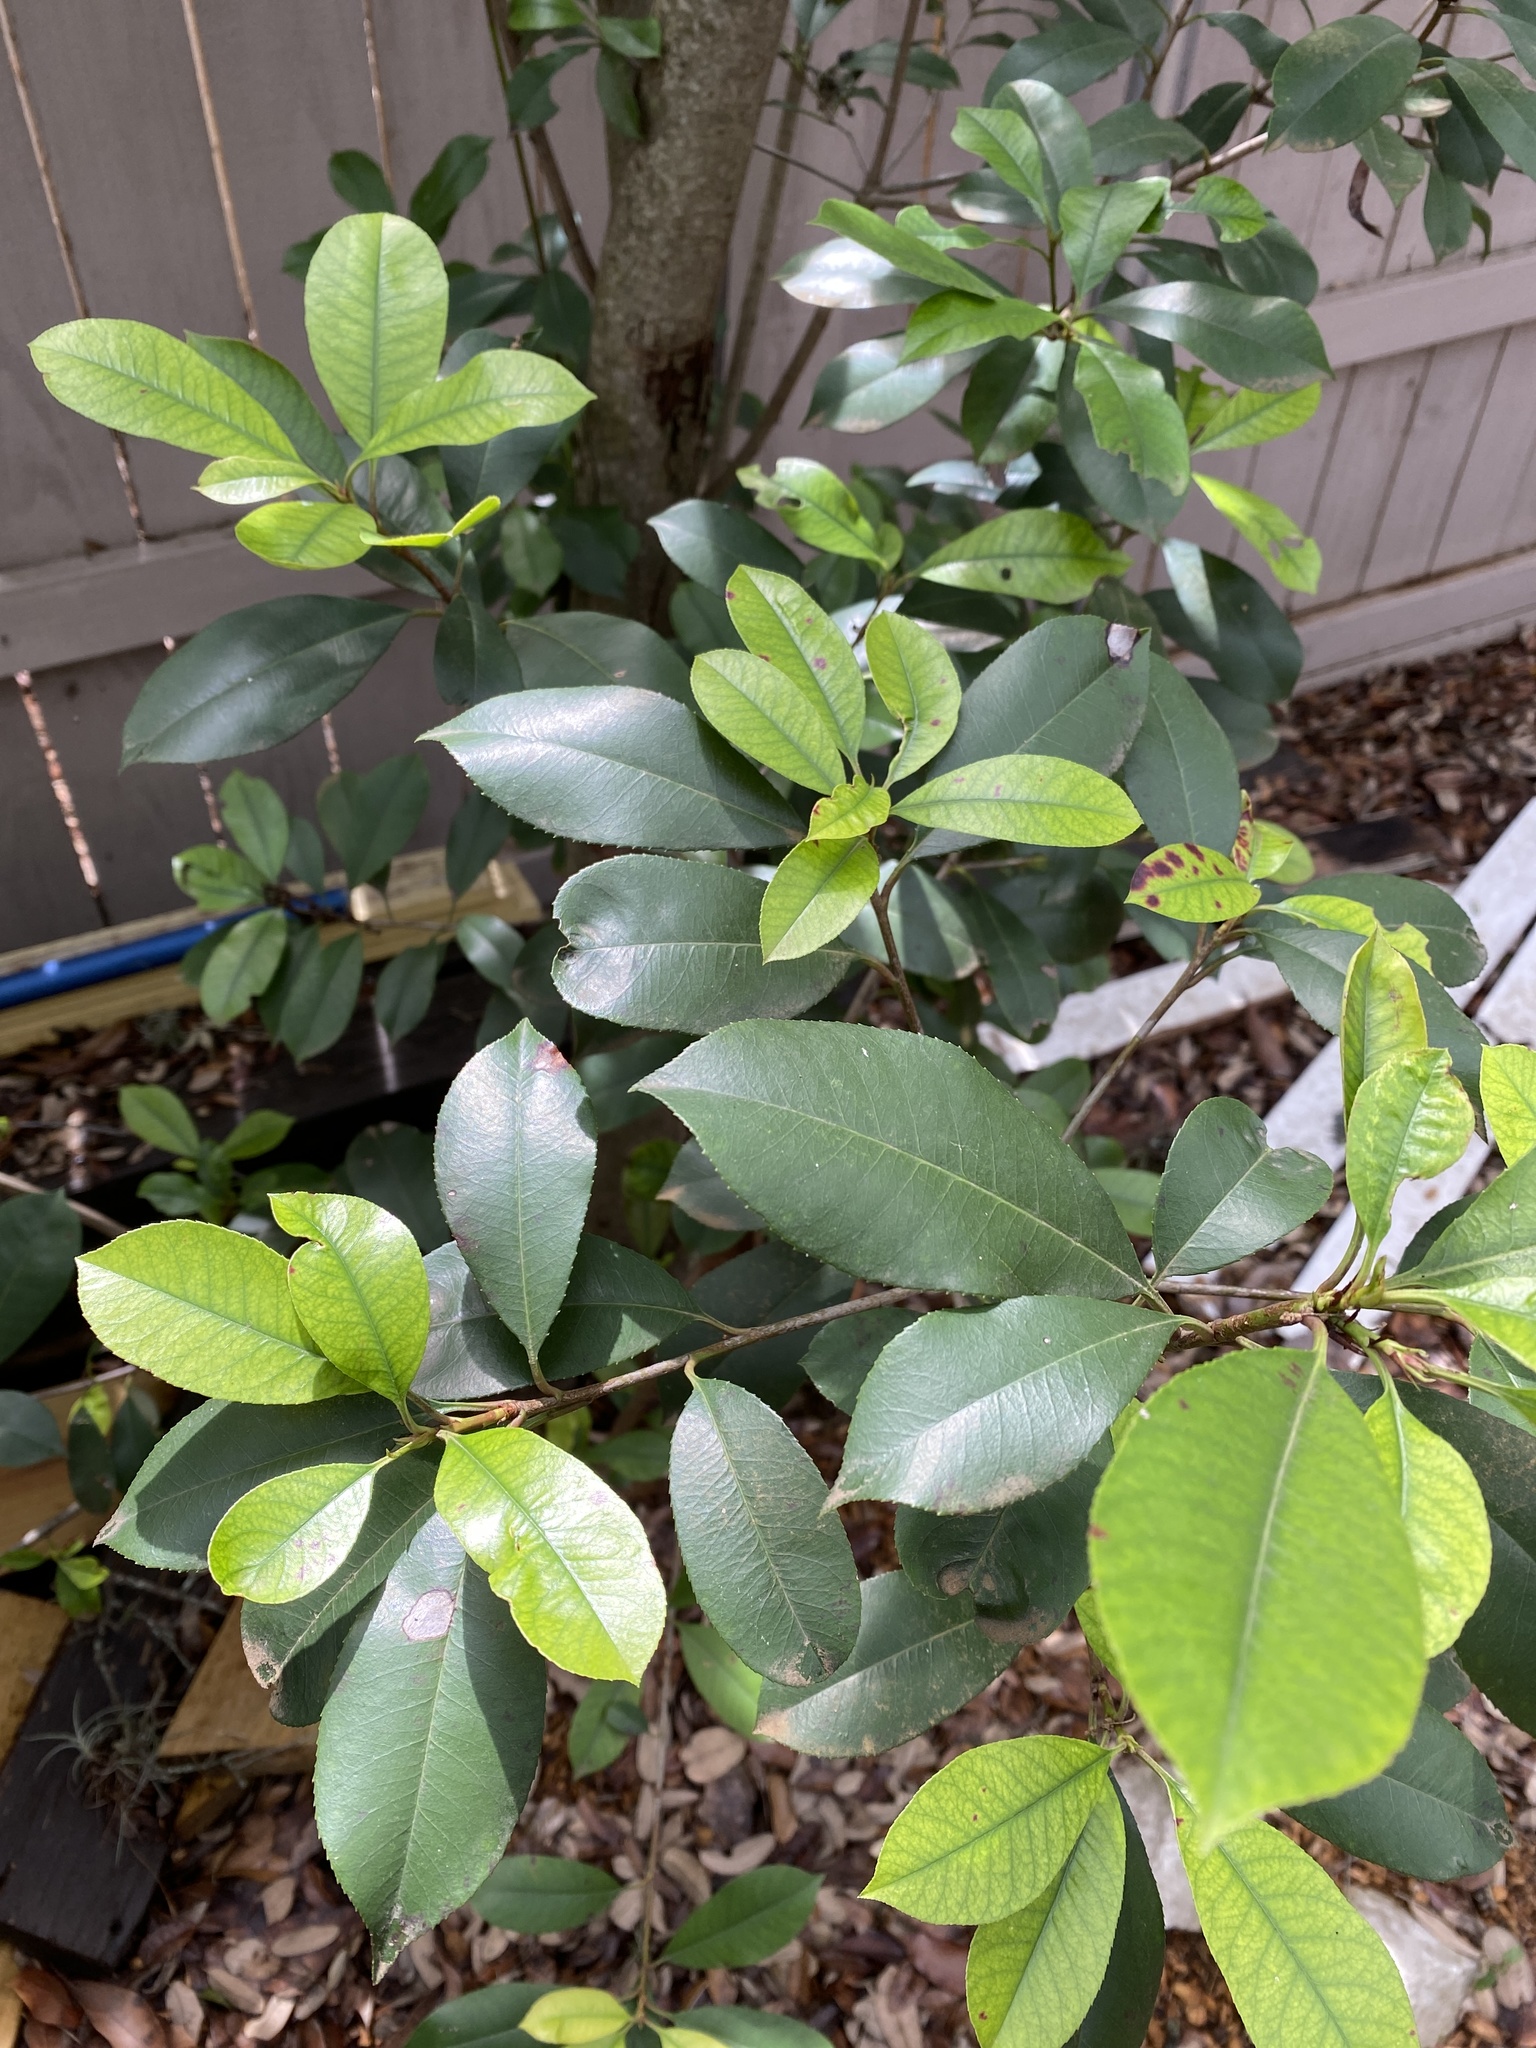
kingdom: Plantae
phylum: Tracheophyta
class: Magnoliopsida
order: Rosales
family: Rosaceae
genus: Photinia
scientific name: Photinia fraseri
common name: Fraser's photinia
